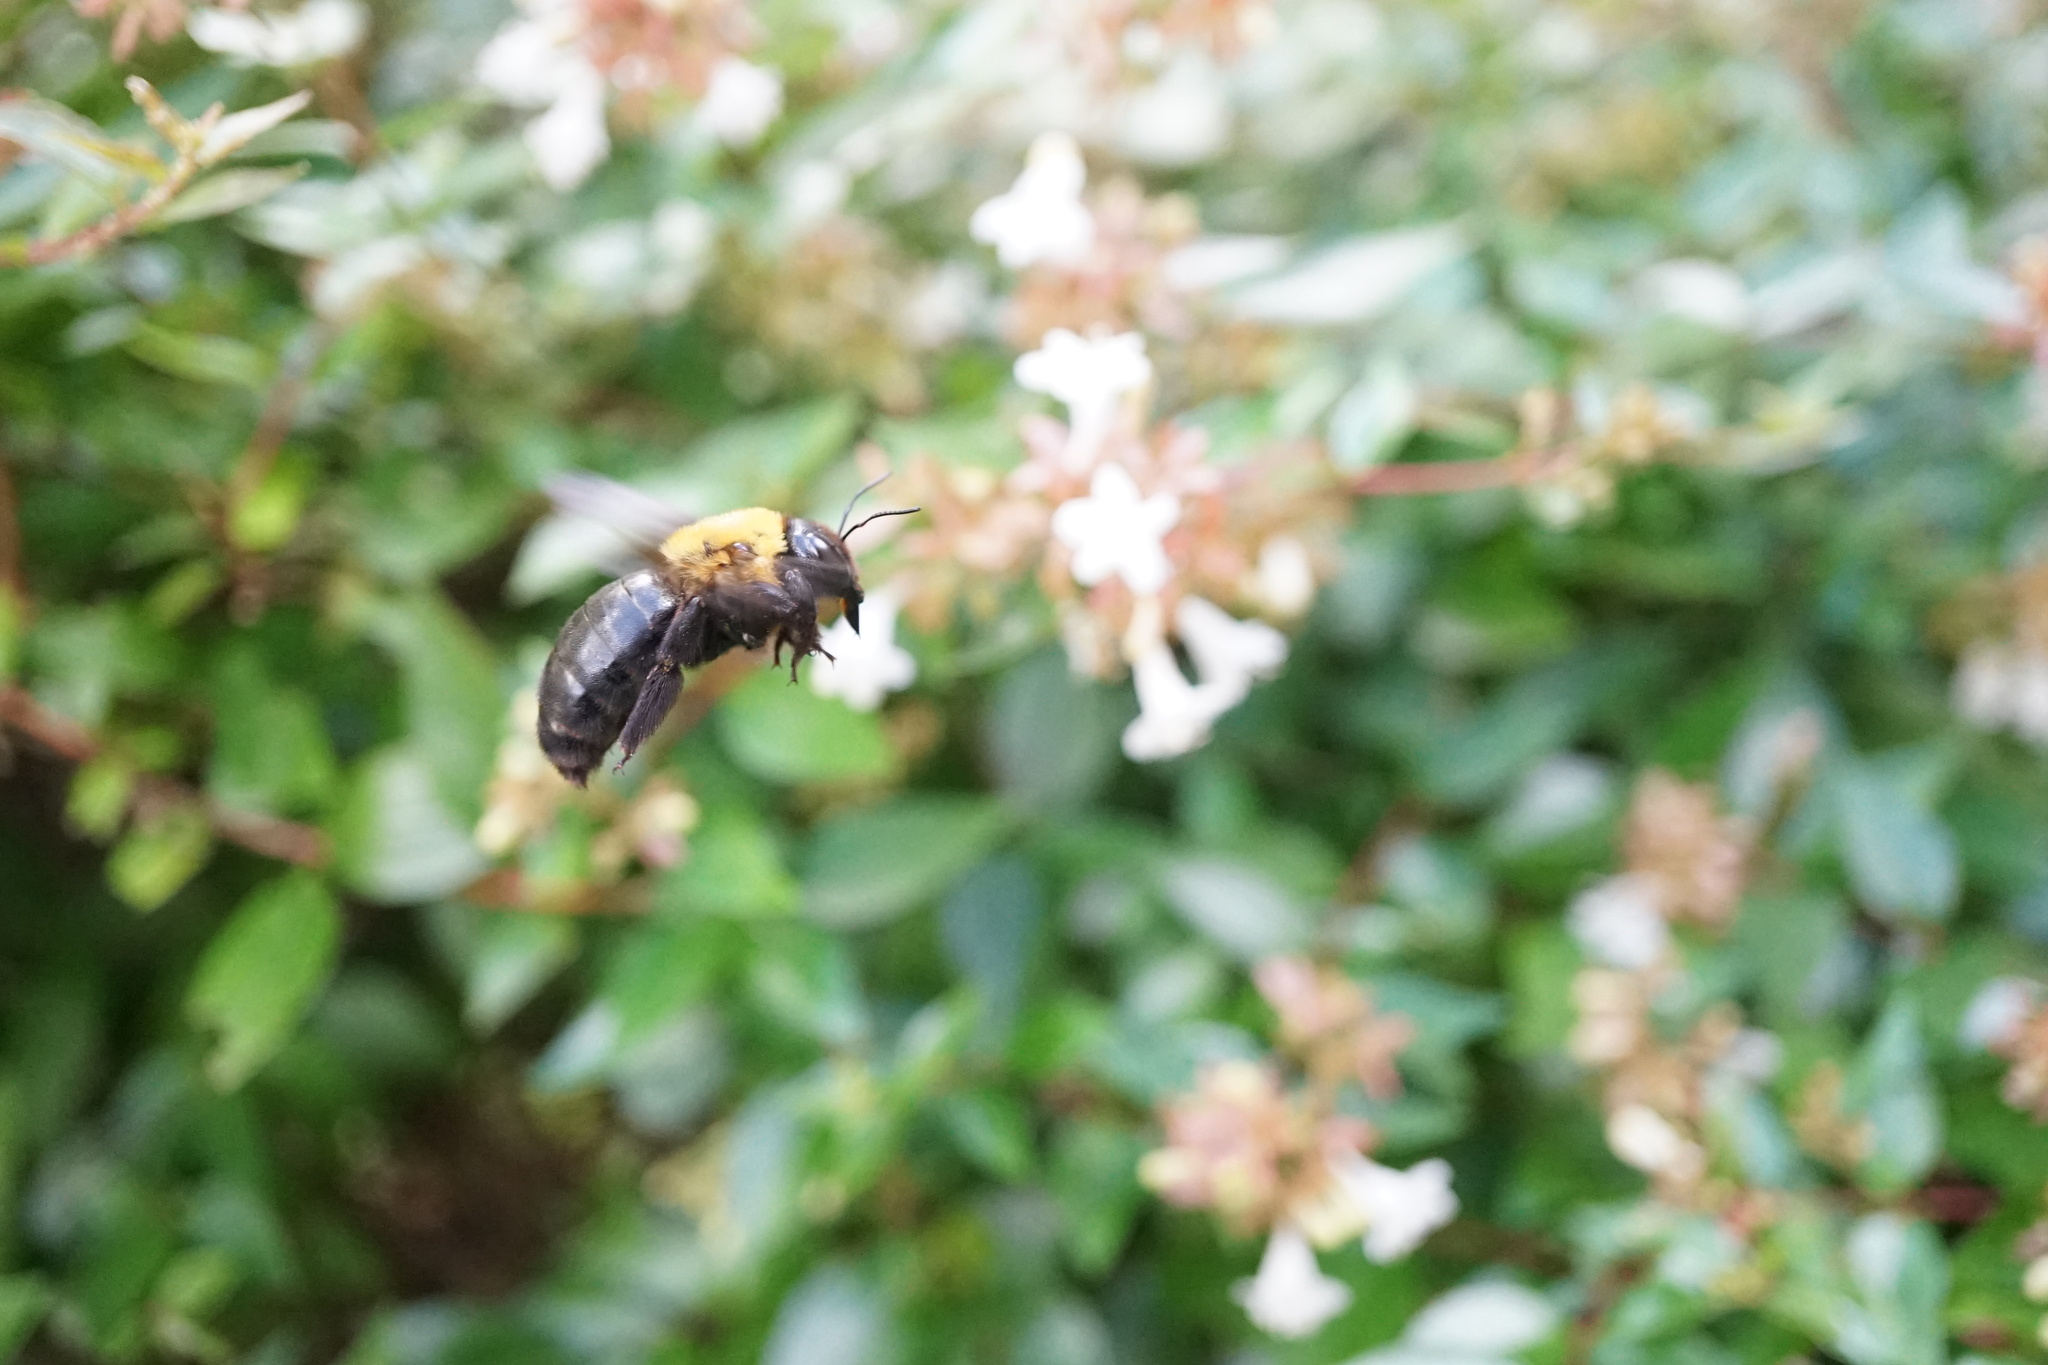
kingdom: Animalia
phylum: Arthropoda
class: Insecta
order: Hymenoptera
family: Apidae
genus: Xylocopa
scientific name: Xylocopa appendiculata
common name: Japanese carpenter bee
